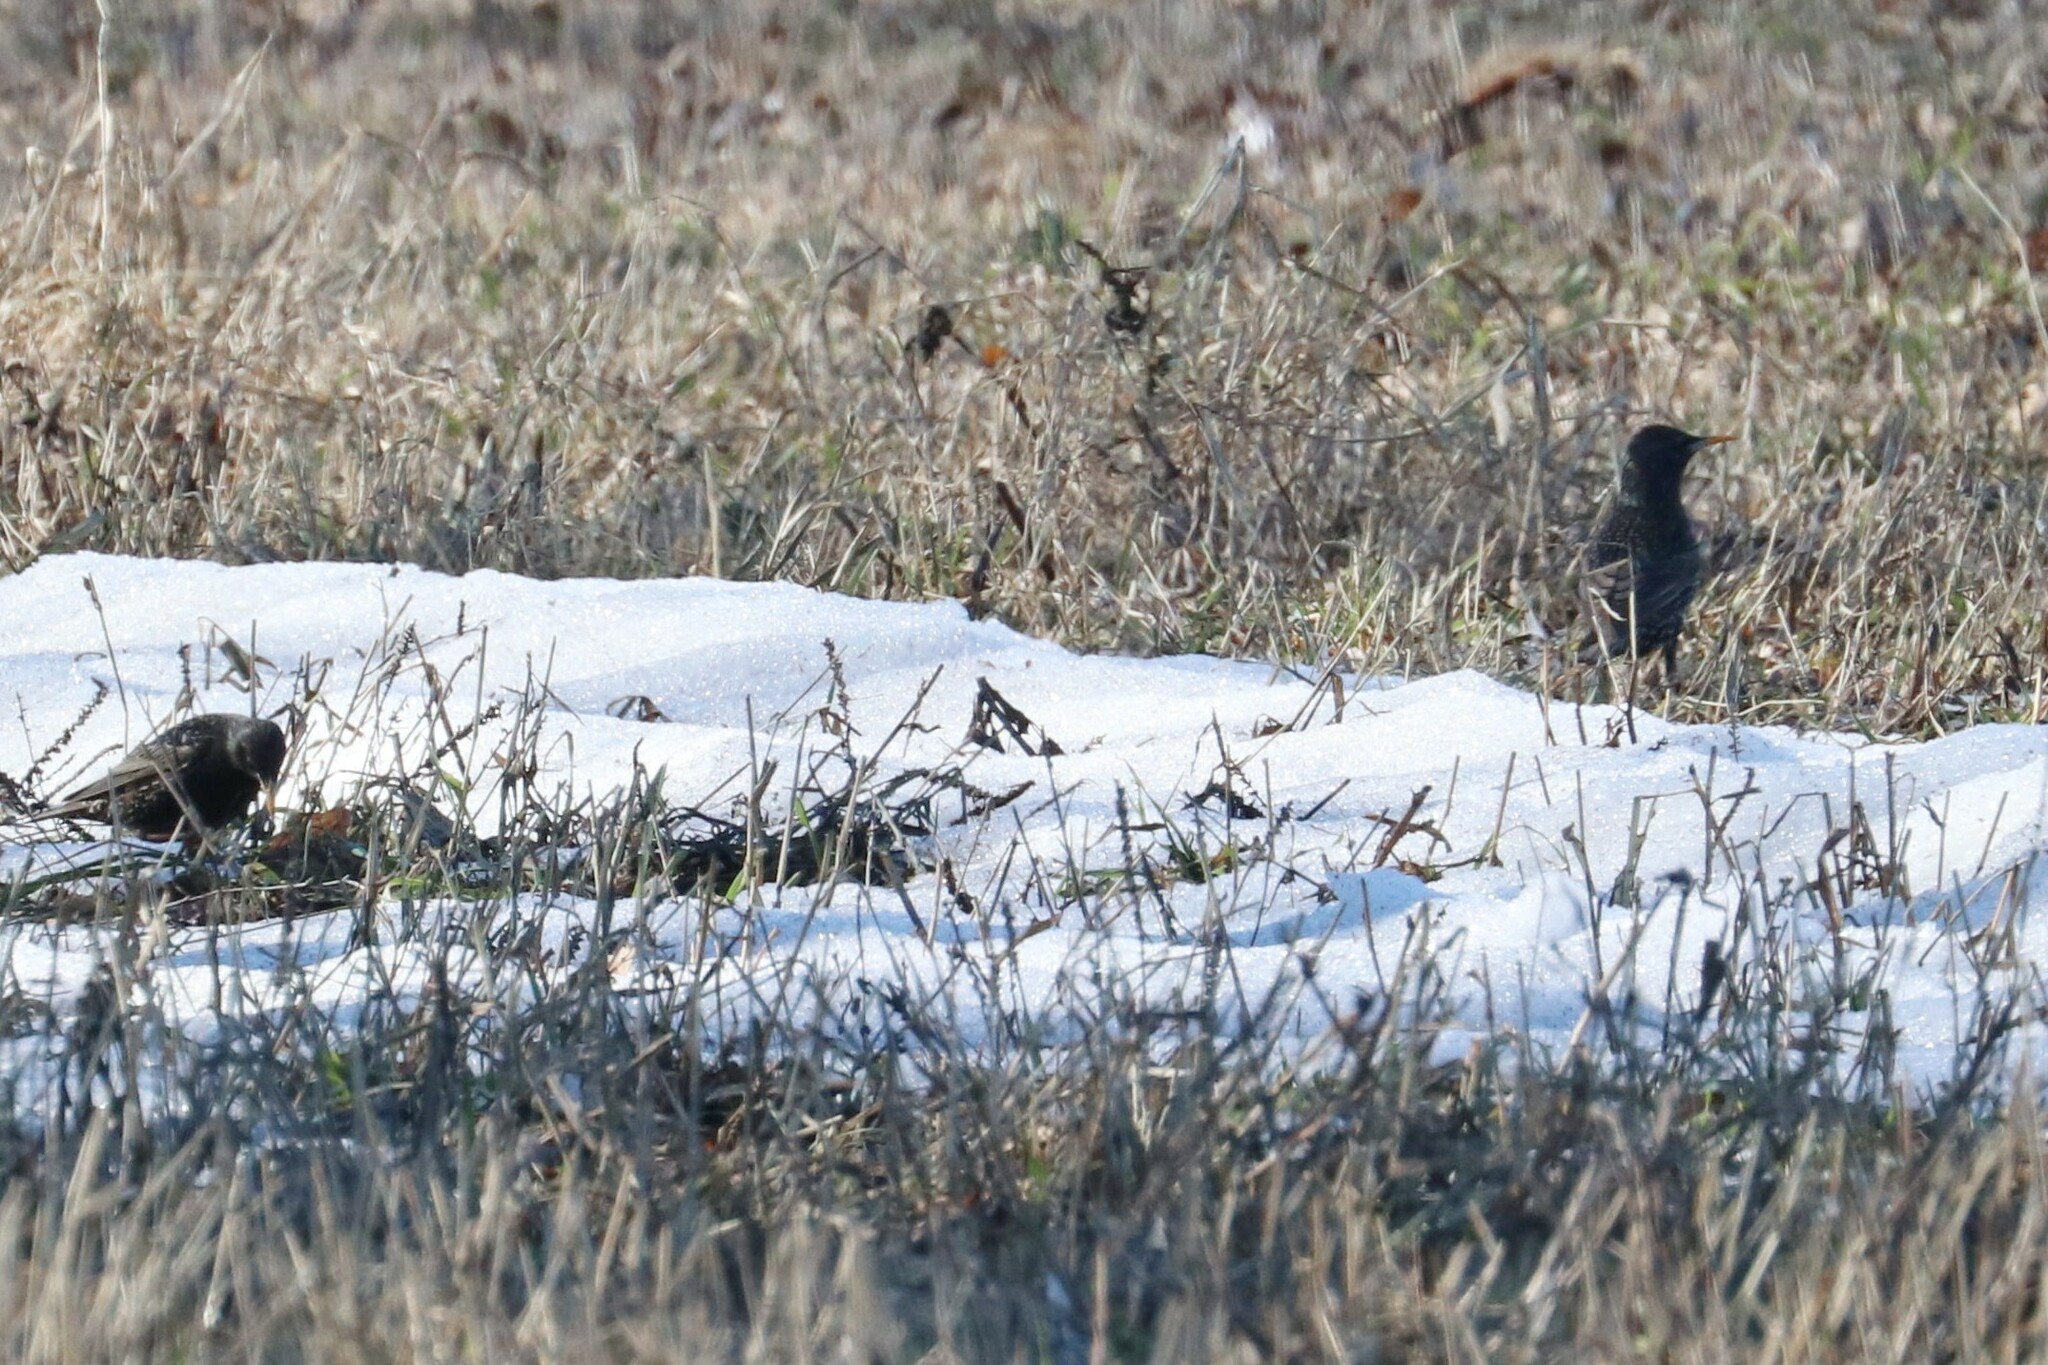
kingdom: Animalia
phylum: Chordata
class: Aves
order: Passeriformes
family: Sturnidae
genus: Sturnus
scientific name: Sturnus vulgaris
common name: Common starling
